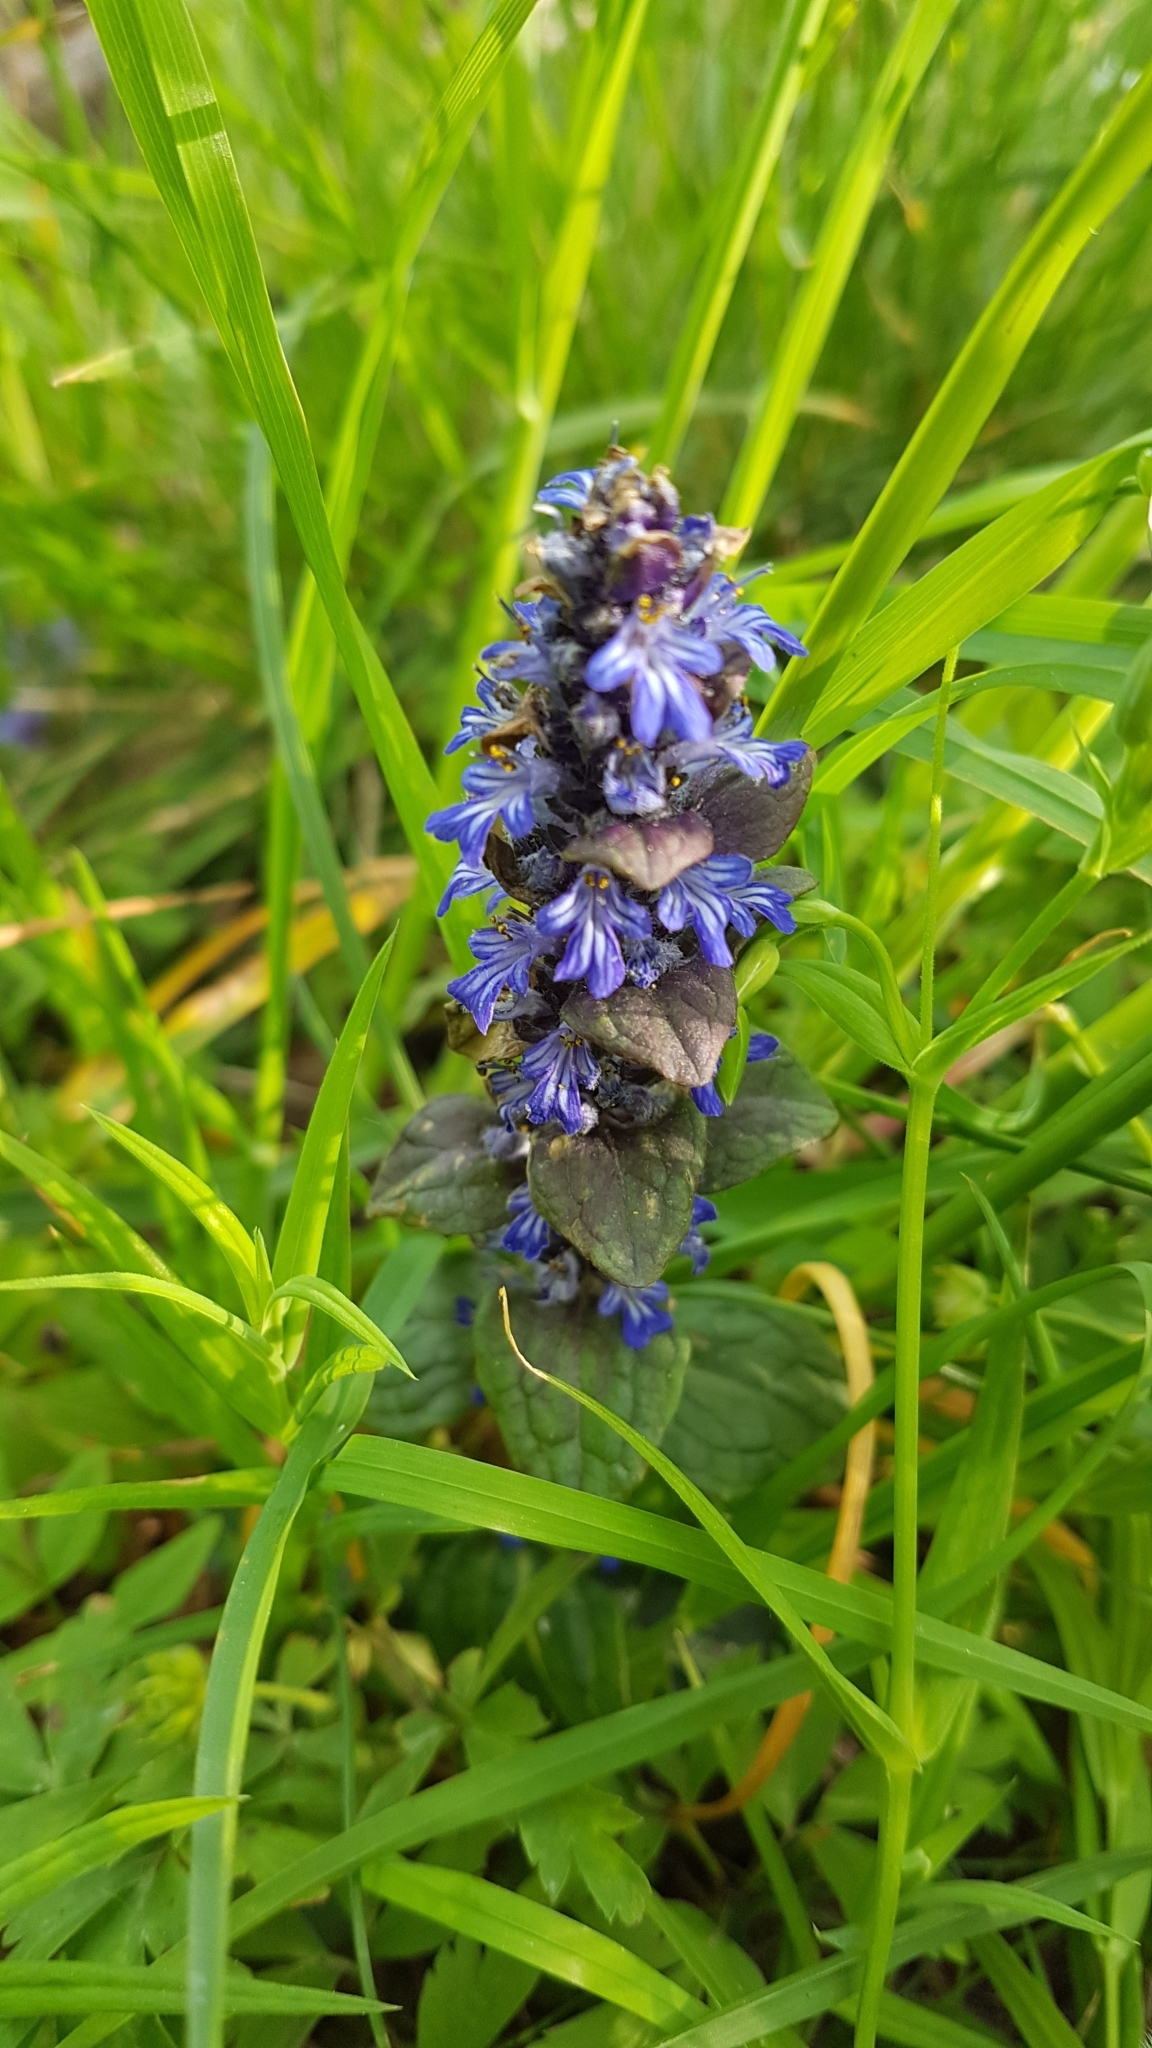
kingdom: Plantae
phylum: Tracheophyta
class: Magnoliopsida
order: Lamiales
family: Lamiaceae
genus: Ajuga
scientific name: Ajuga reptans
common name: Bugle
